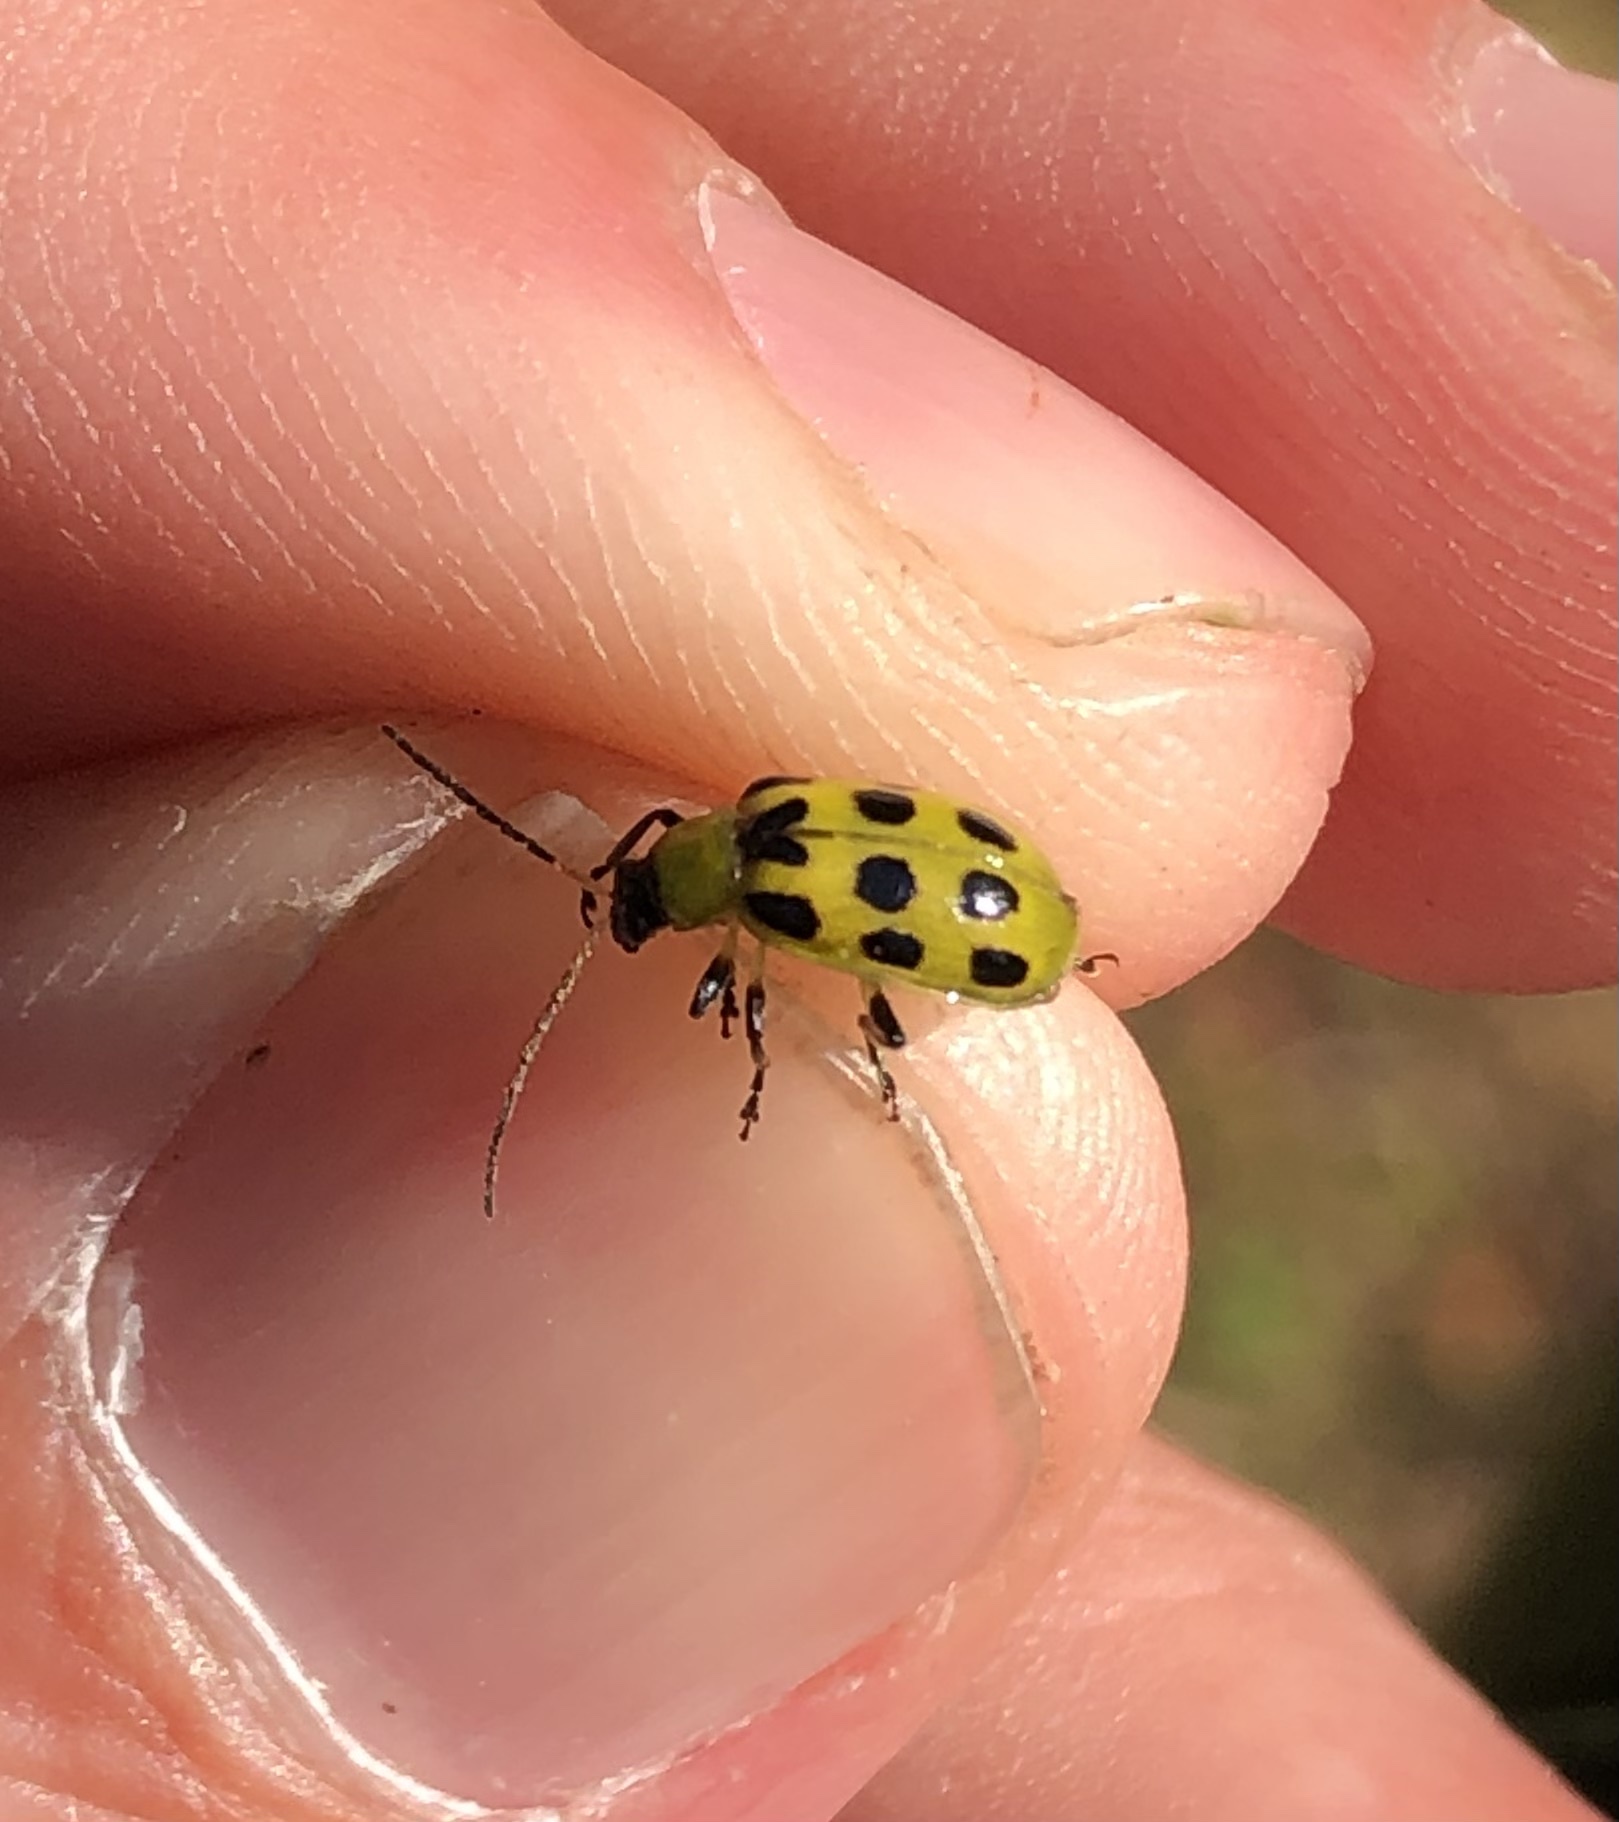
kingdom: Animalia
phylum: Arthropoda
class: Insecta
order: Coleoptera
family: Chrysomelidae
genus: Diabrotica
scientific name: Diabrotica undecimpunctata
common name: Spotted cucumber beetle
